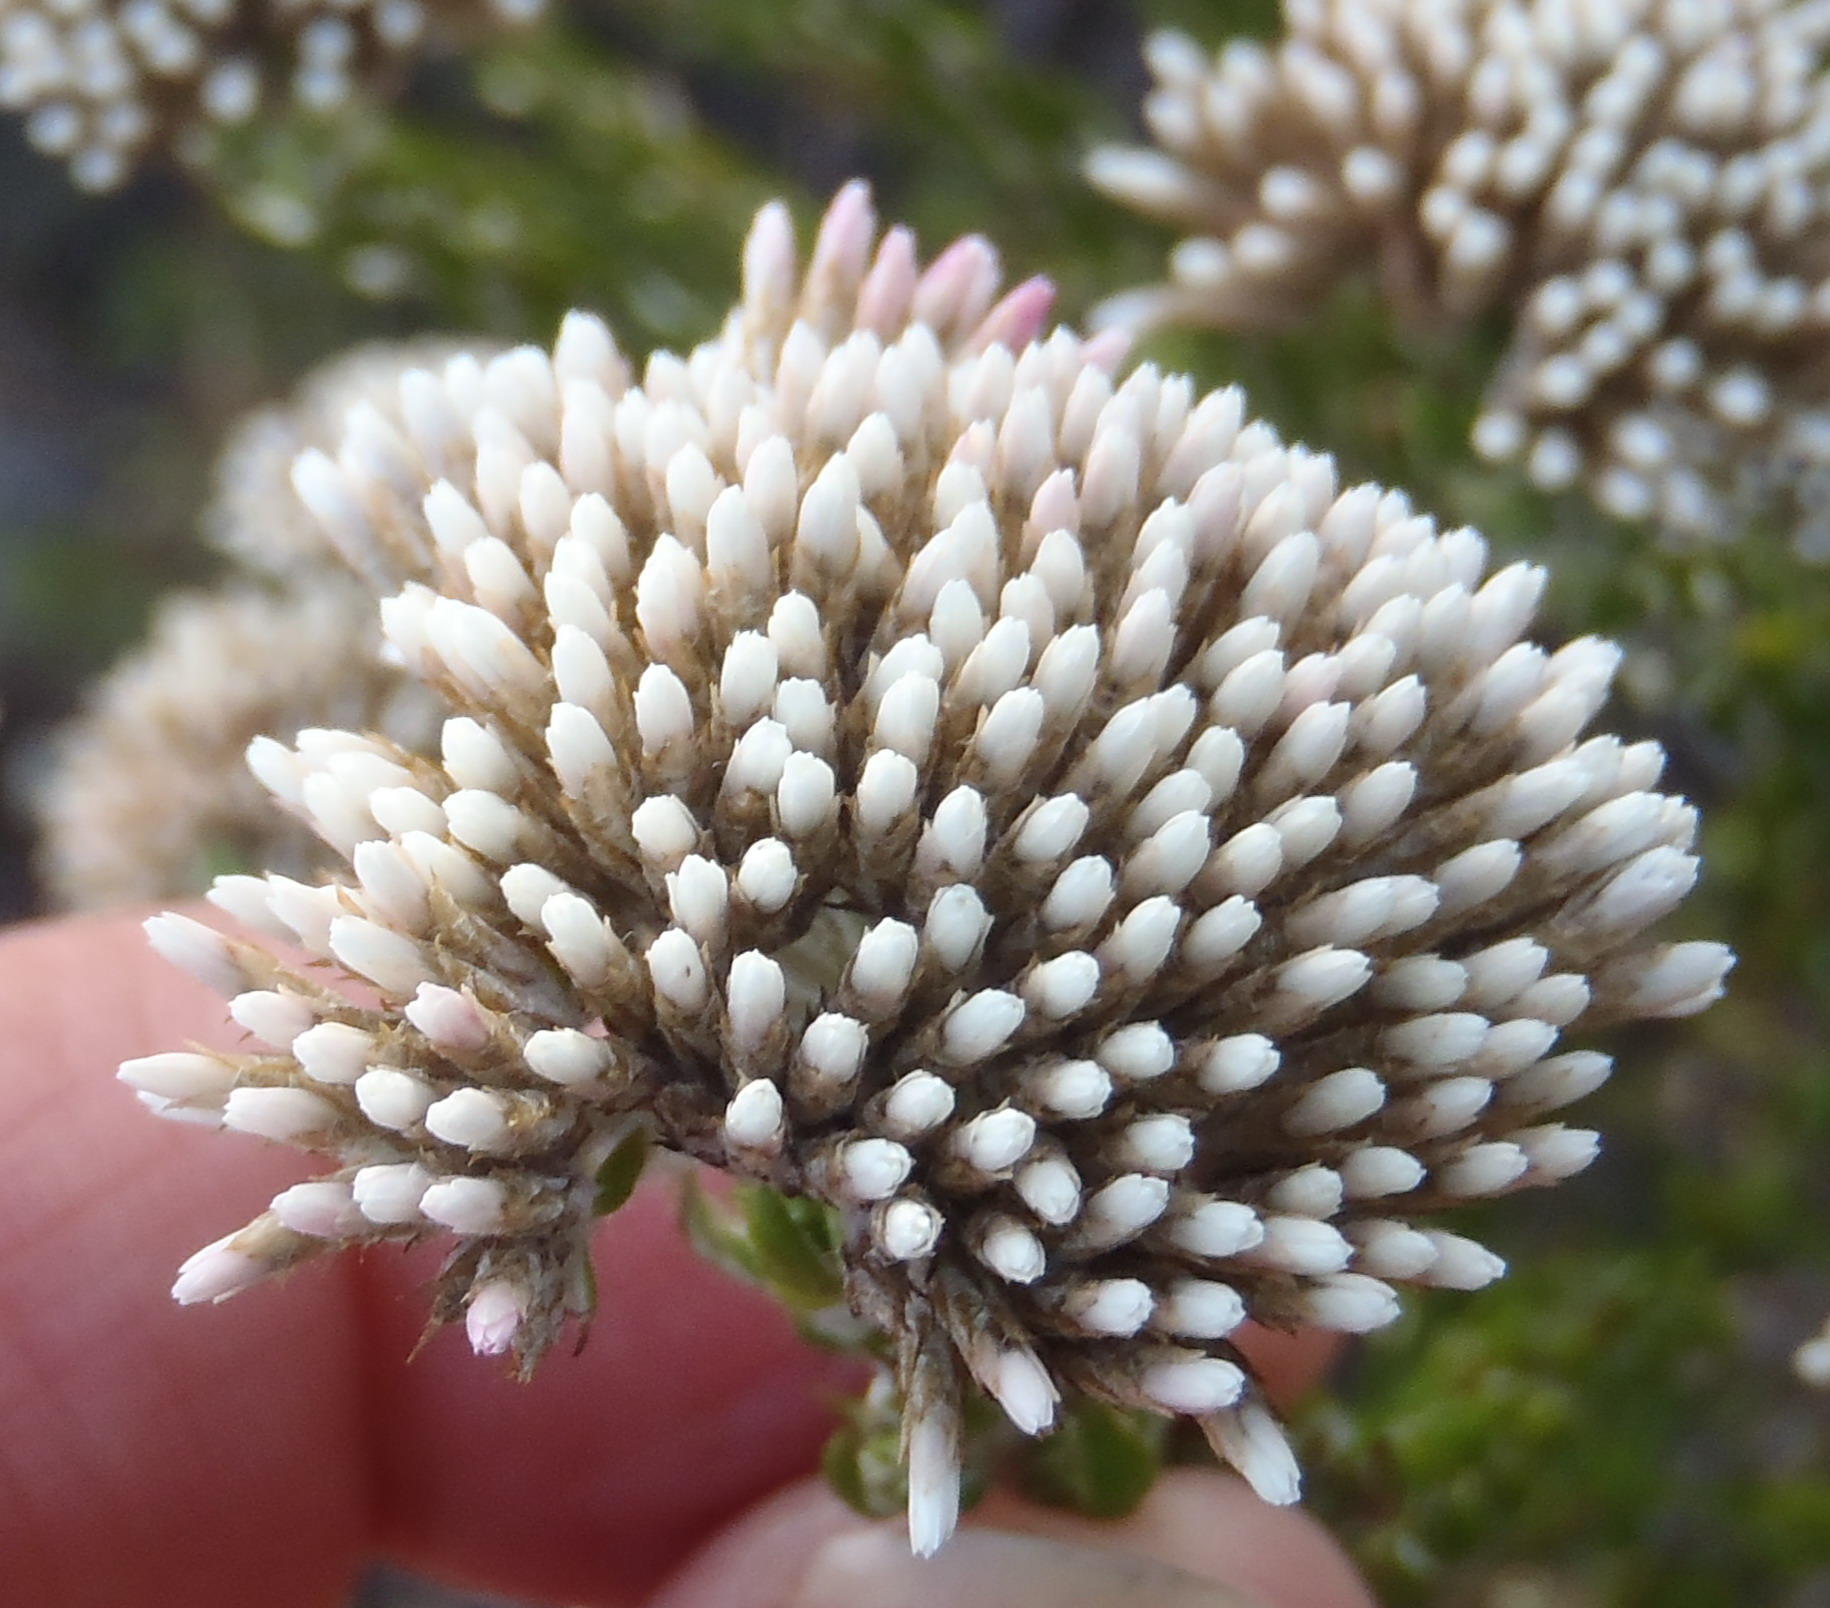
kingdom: Plantae
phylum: Tracheophyta
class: Magnoliopsida
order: Asterales
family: Asteraceae
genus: Metalasia
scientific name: Metalasia pungens
